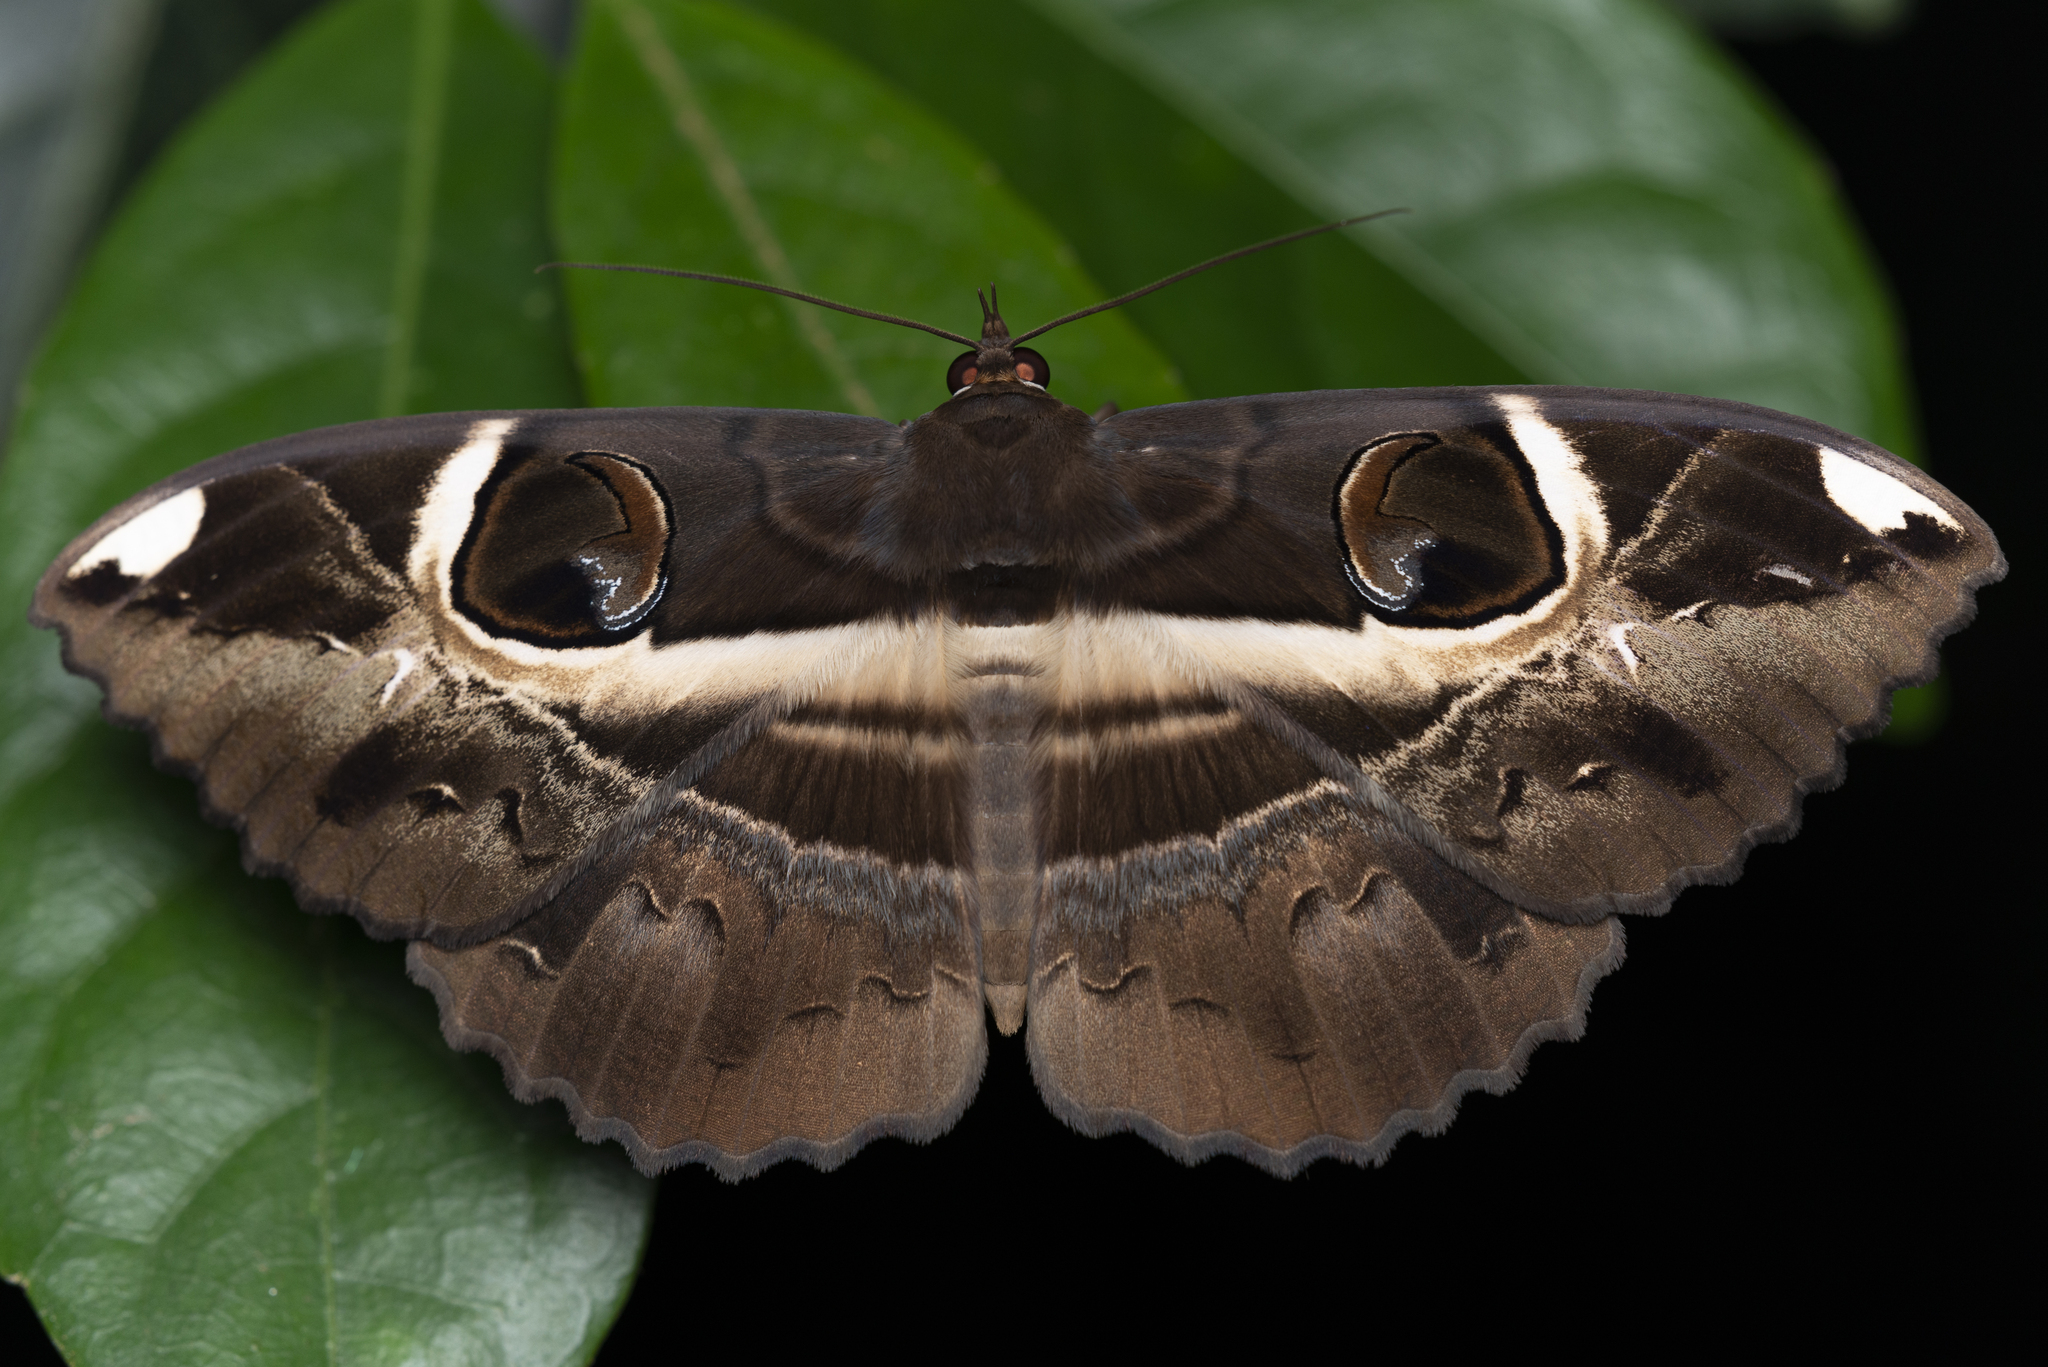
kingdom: Animalia
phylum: Arthropoda
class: Insecta
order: Lepidoptera
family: Erebidae
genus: Erebus
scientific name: Erebus ephesperis
